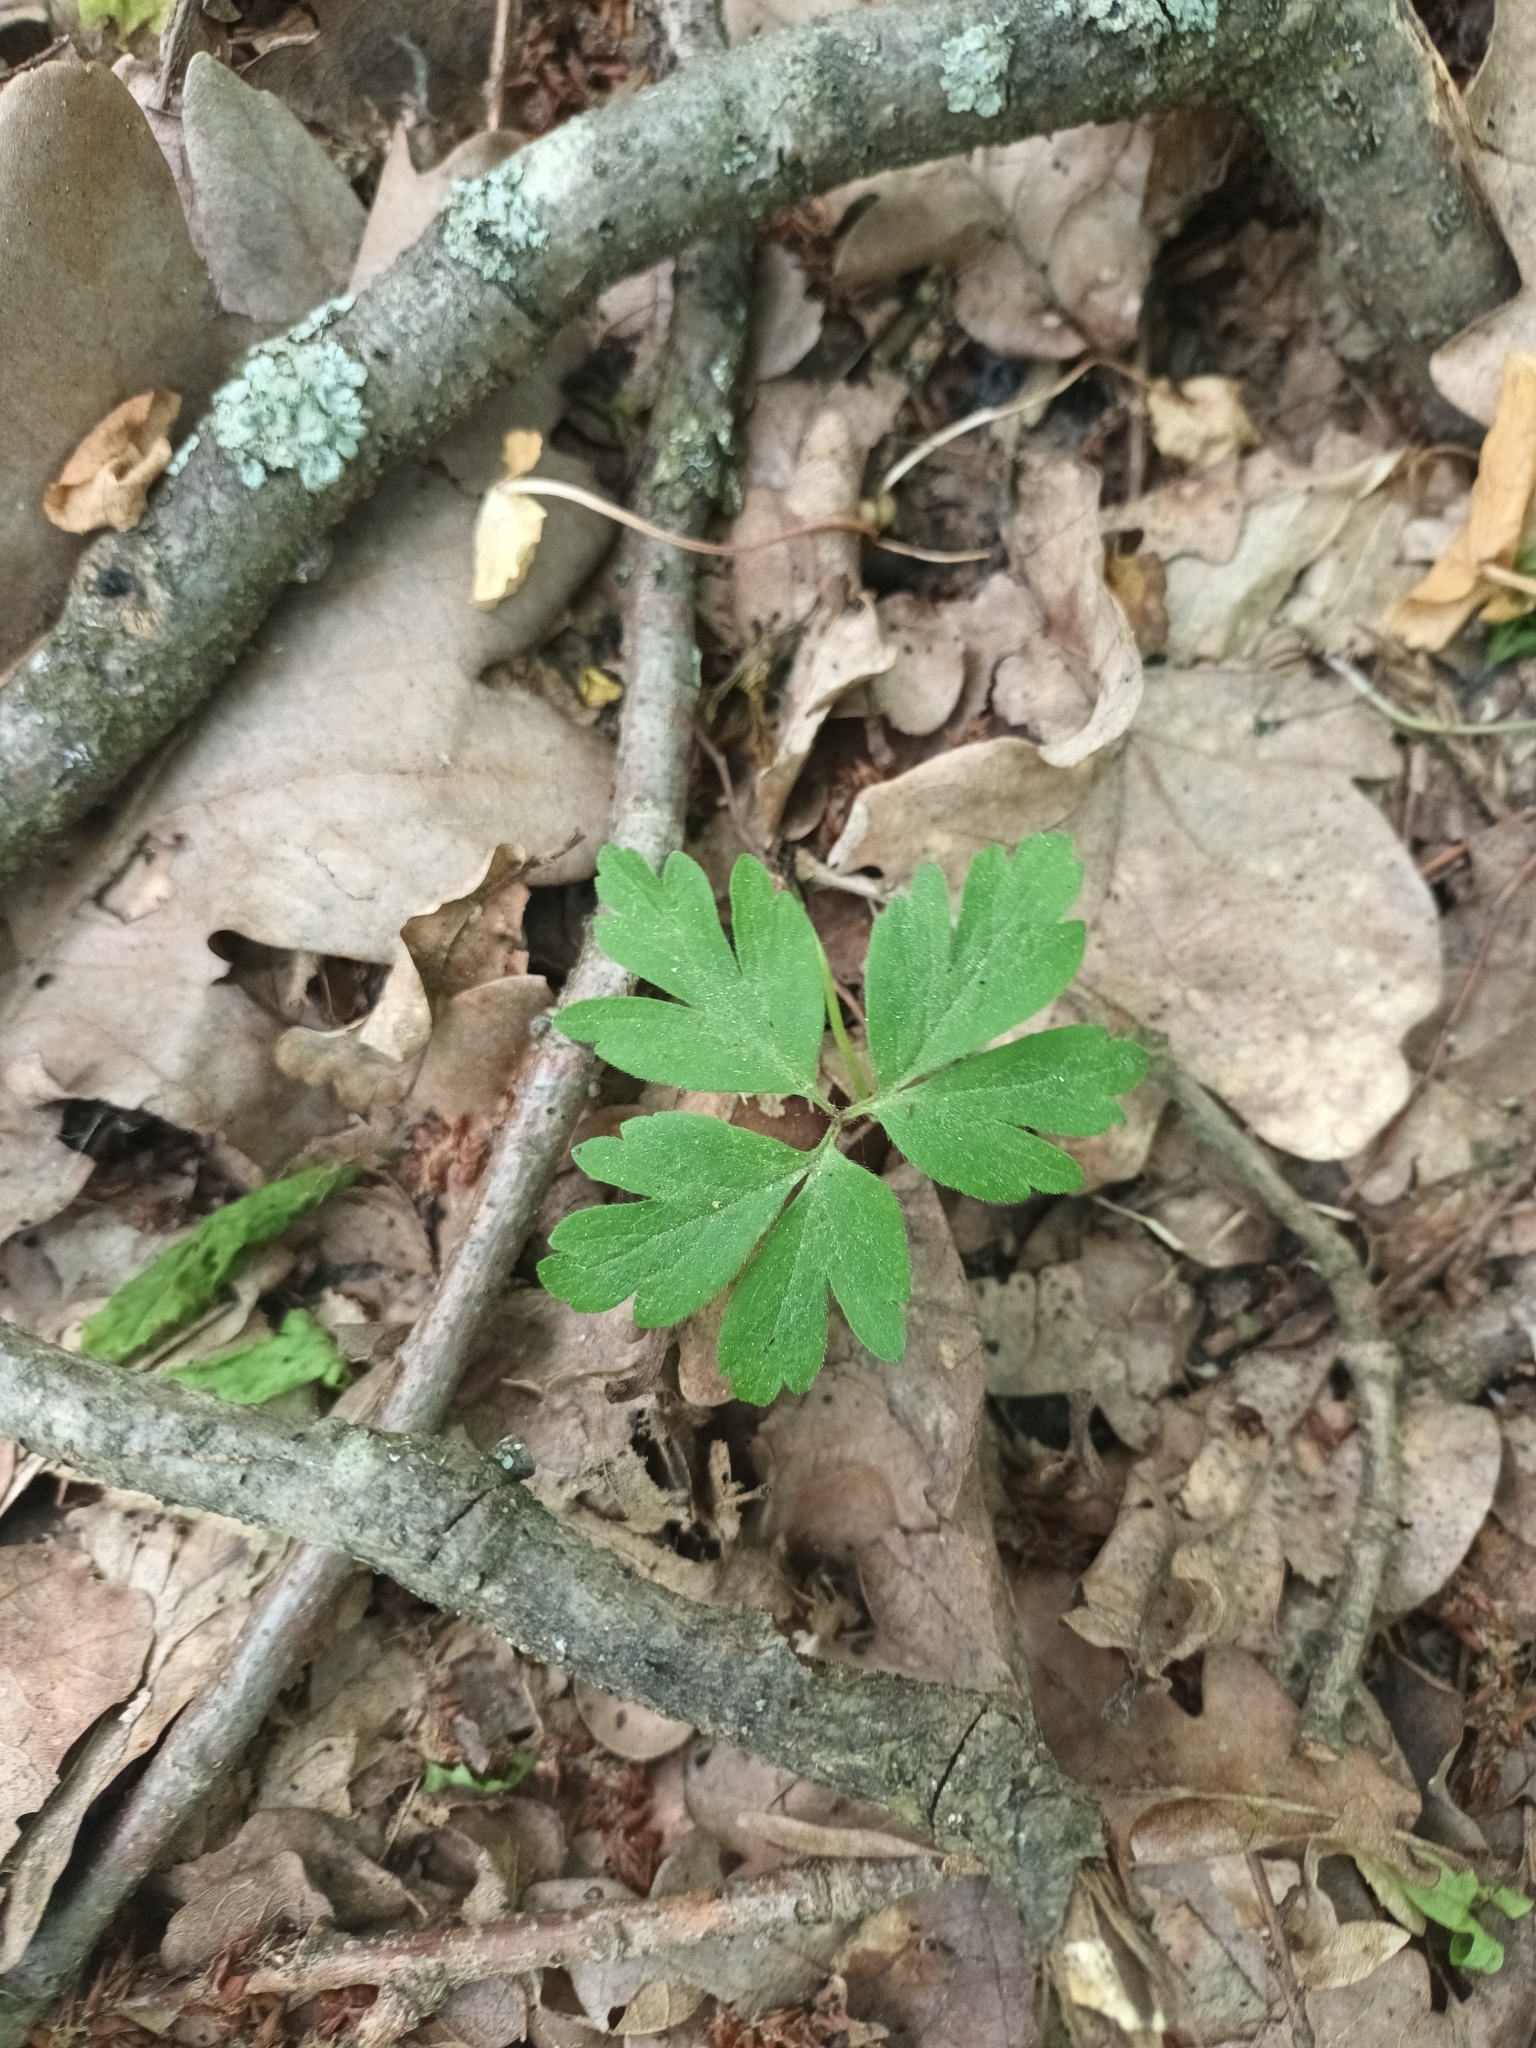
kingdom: Plantae
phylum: Tracheophyta
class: Magnoliopsida
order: Ranunculales
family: Ranunculaceae
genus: Anemone
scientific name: Anemone nemorosa
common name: Wood anemone
